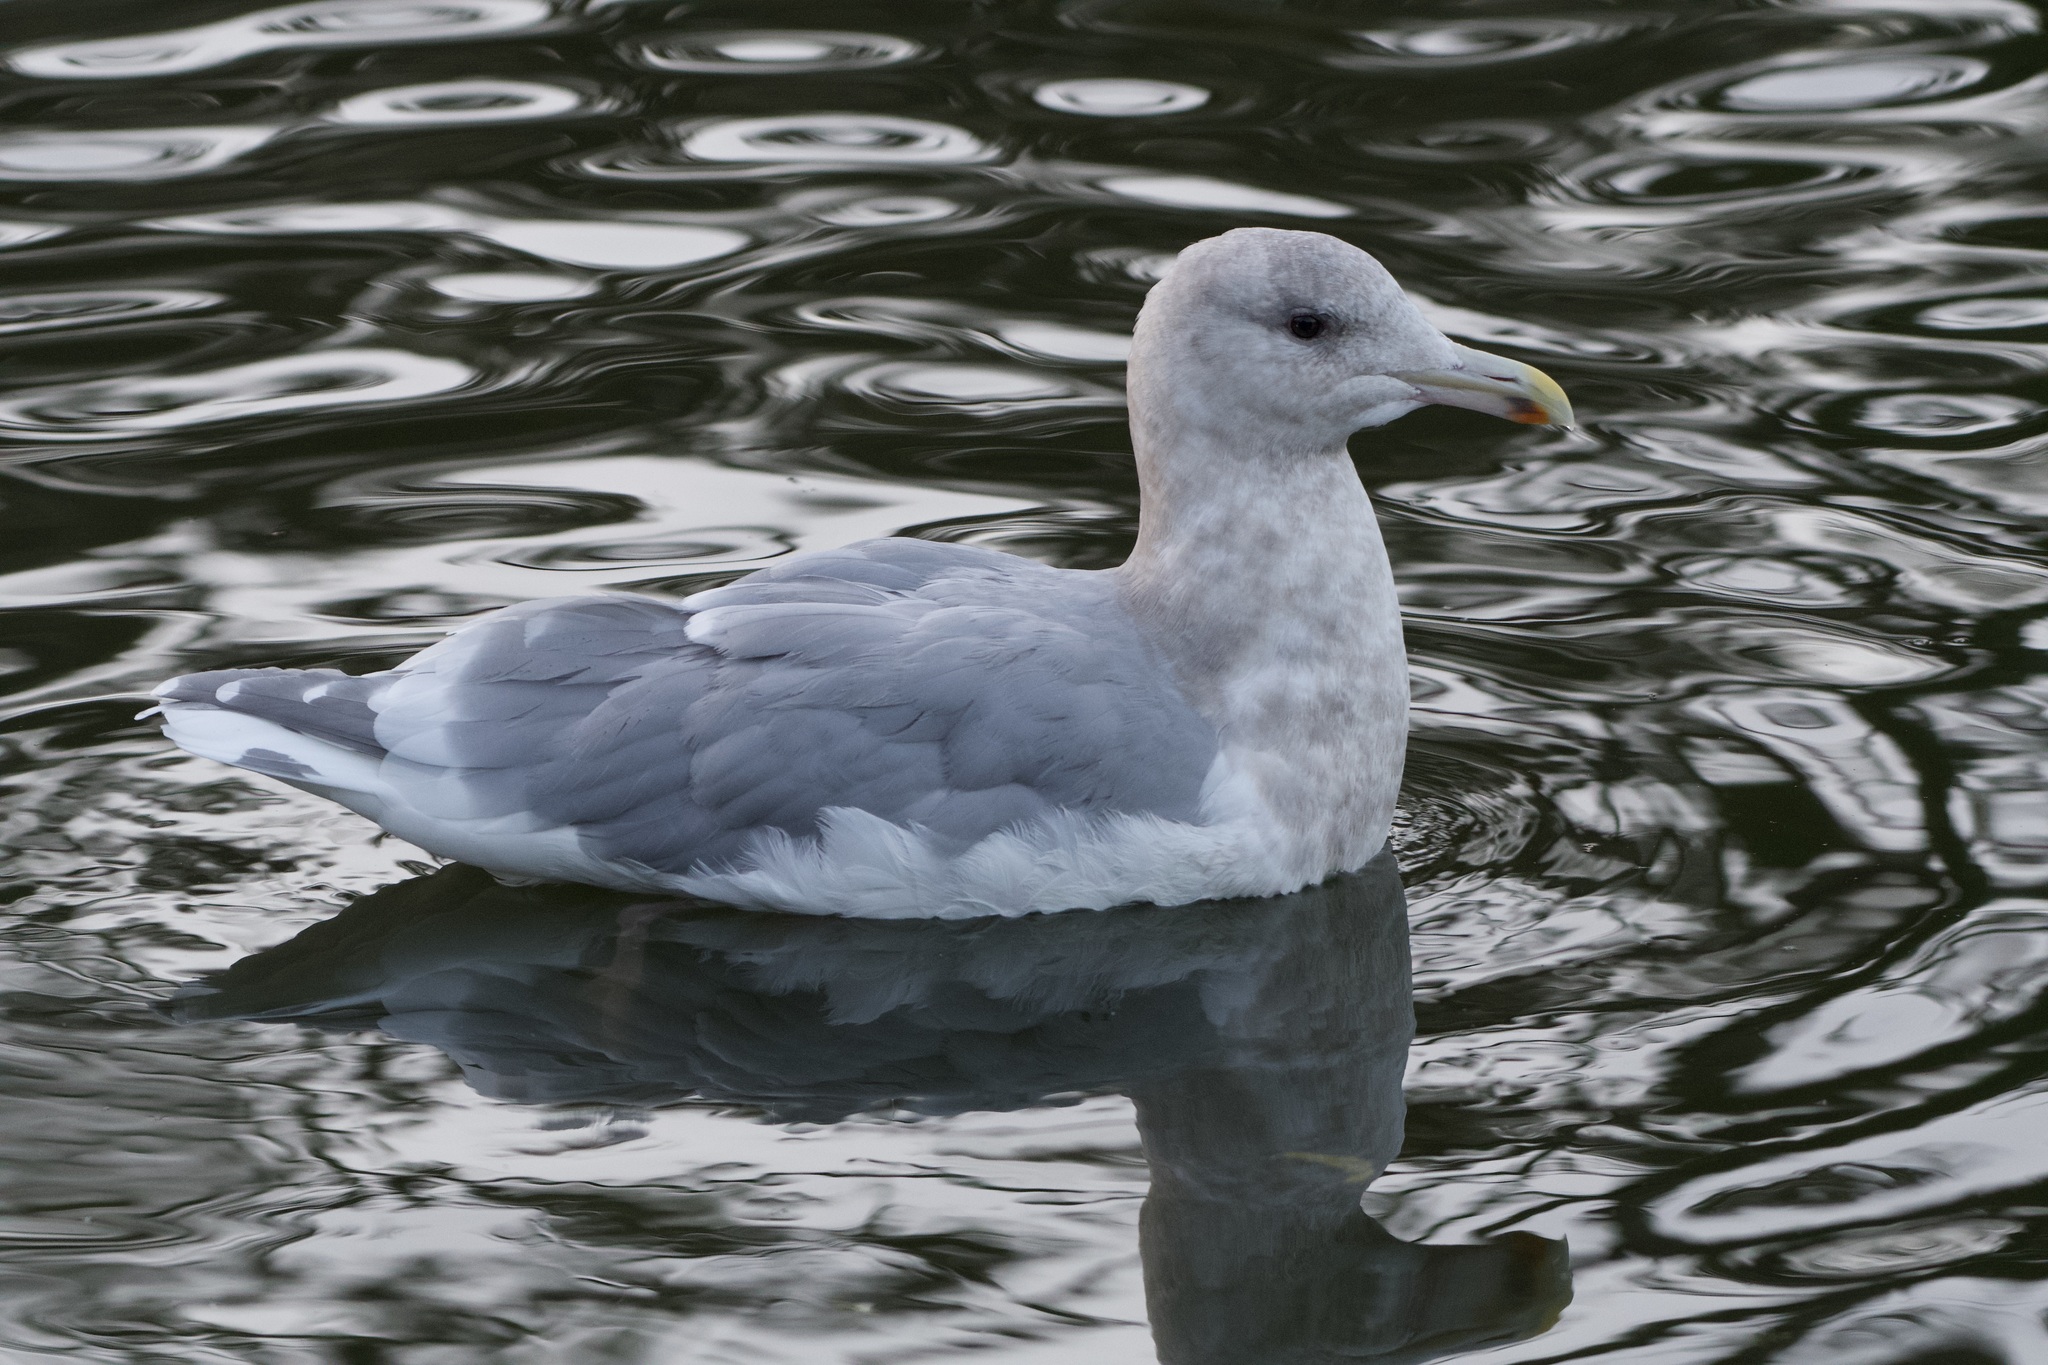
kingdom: Animalia
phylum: Chordata
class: Aves
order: Charadriiformes
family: Laridae
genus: Larus
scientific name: Larus
